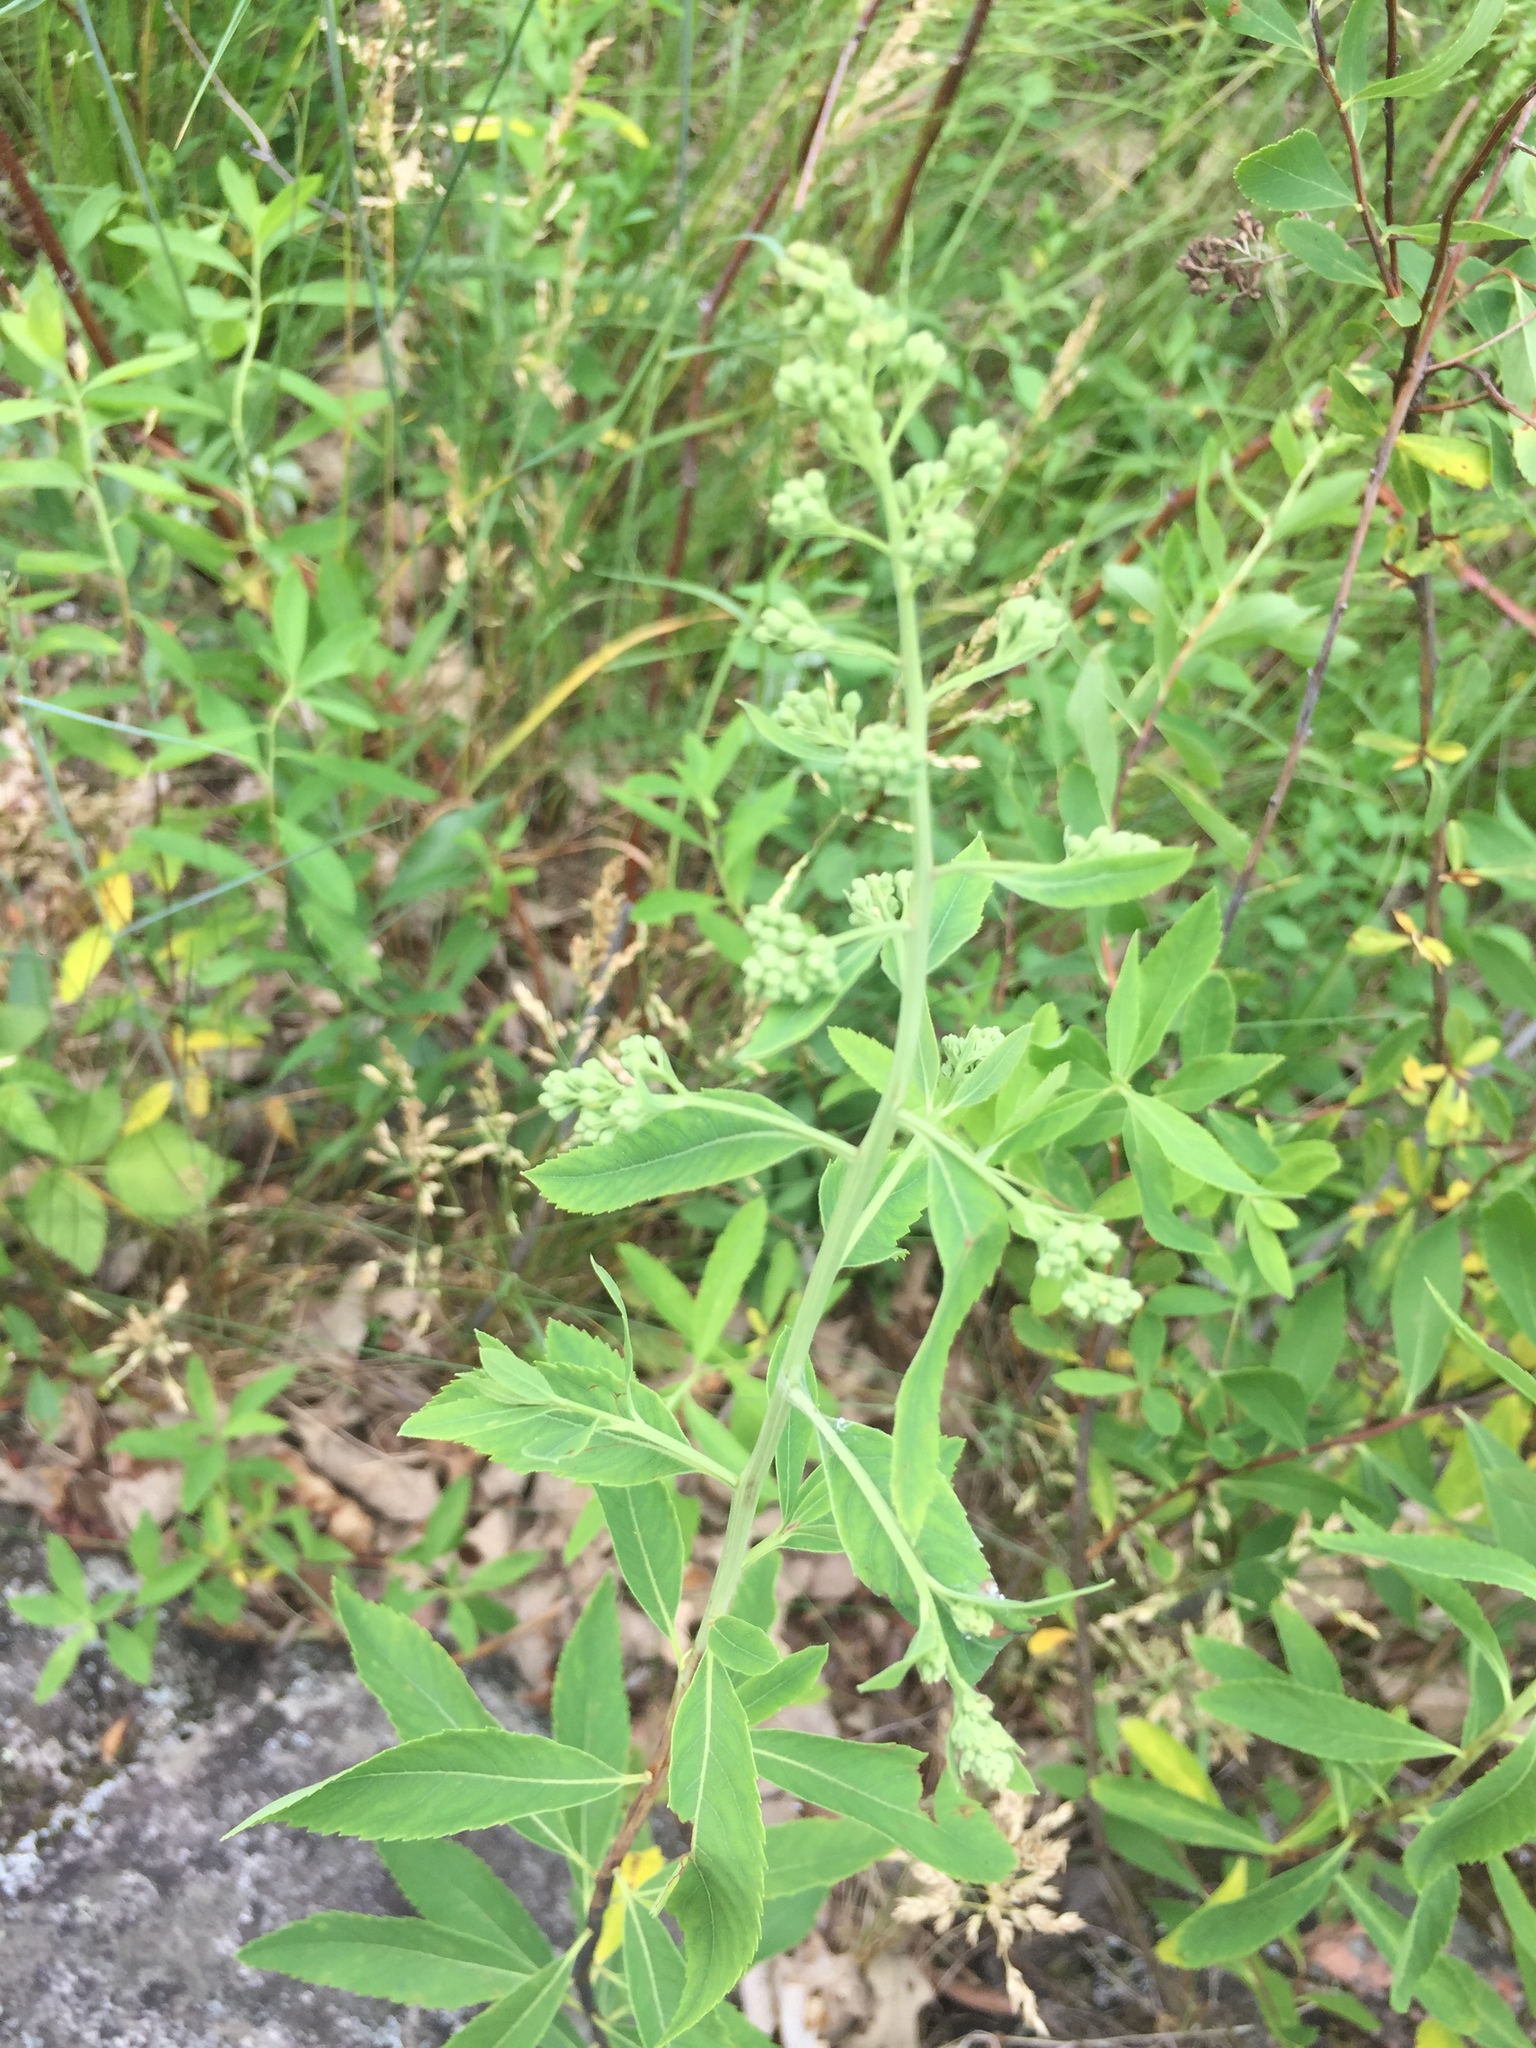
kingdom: Plantae
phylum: Tracheophyta
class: Magnoliopsida
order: Rosales
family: Rosaceae
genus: Spiraea
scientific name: Spiraea alba
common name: Pale bridewort
